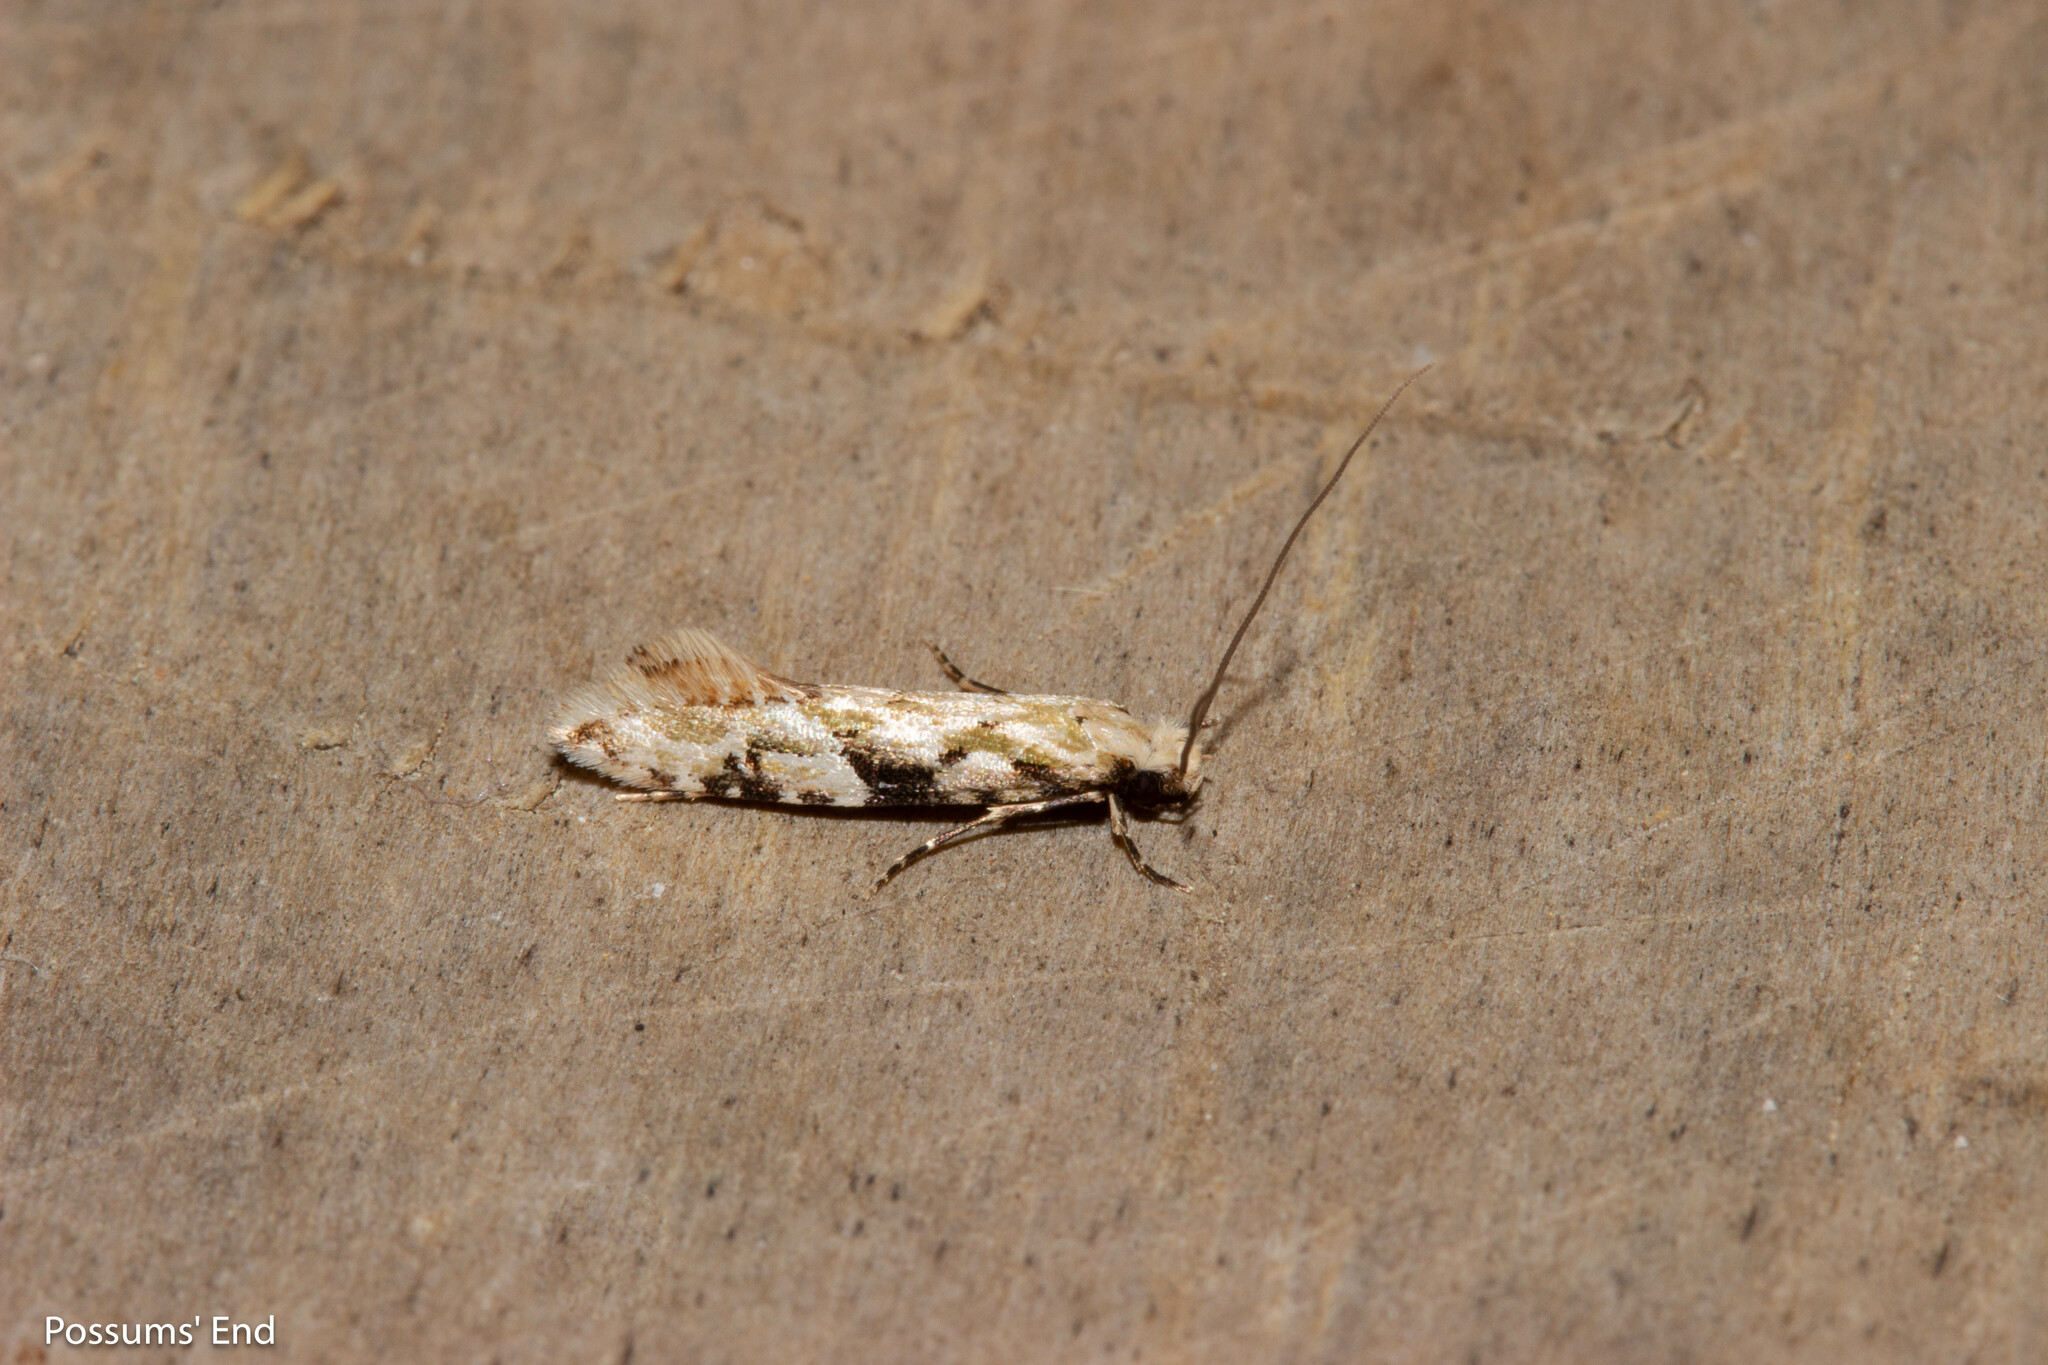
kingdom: Animalia
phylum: Arthropoda
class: Insecta
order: Lepidoptera
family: Tineidae
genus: Crypsitricha
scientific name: Crypsitricha mesotypa
